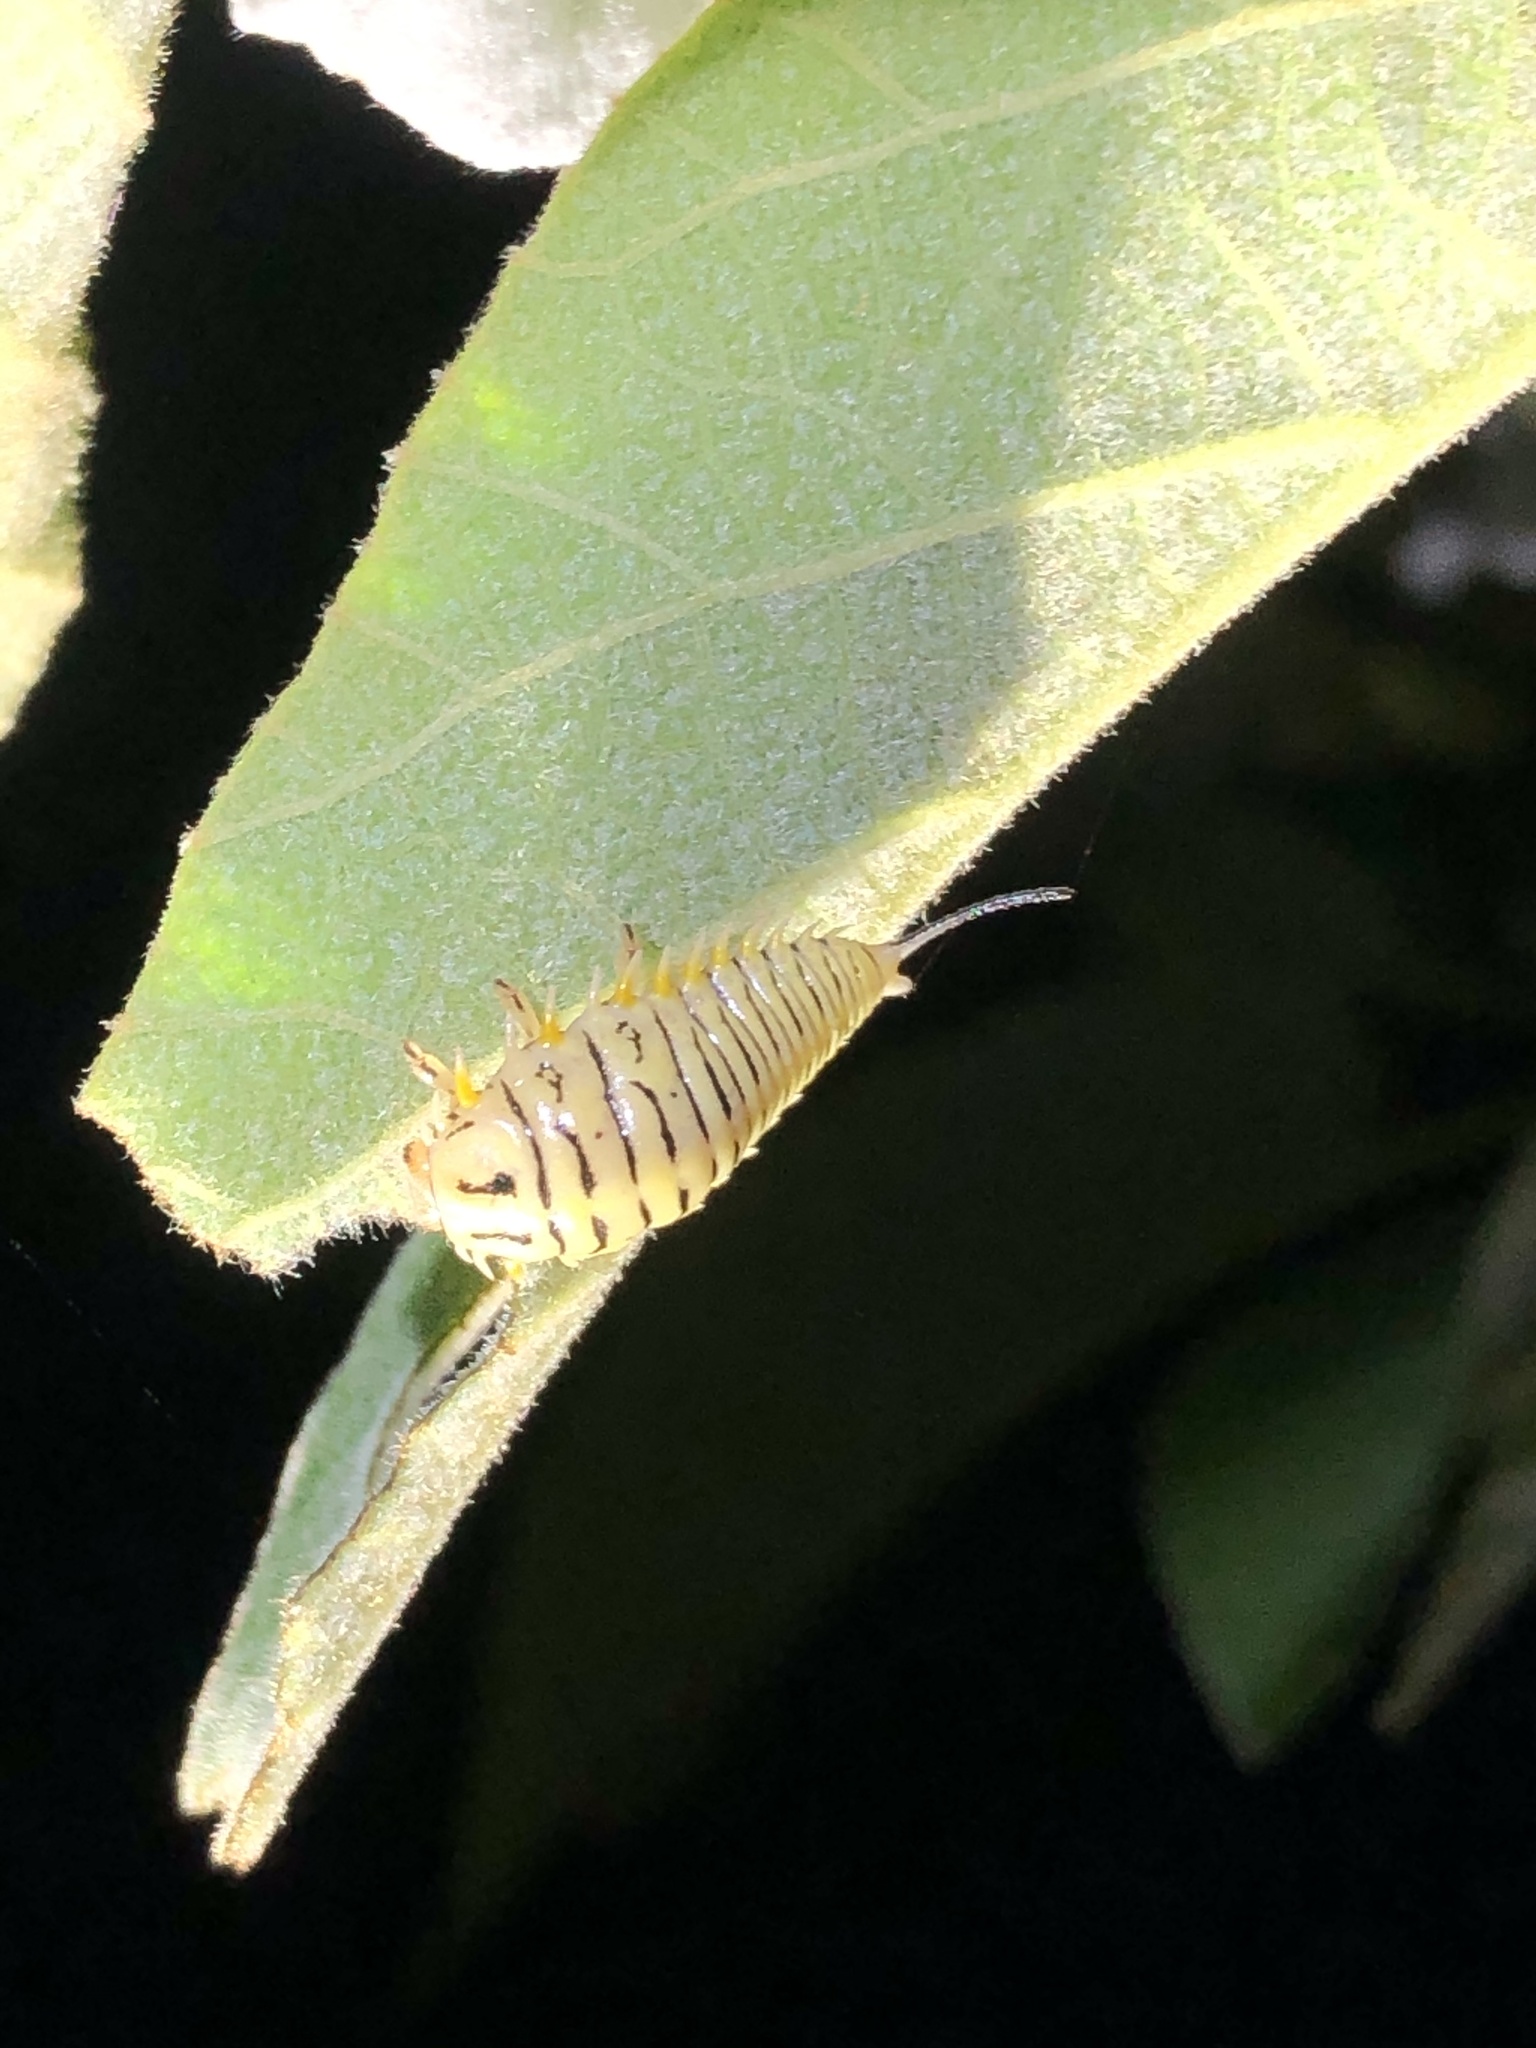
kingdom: Animalia
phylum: Arthropoda
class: Insecta
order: Coleoptera
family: Chrysomelidae
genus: Physonota
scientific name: Physonota alutacea
